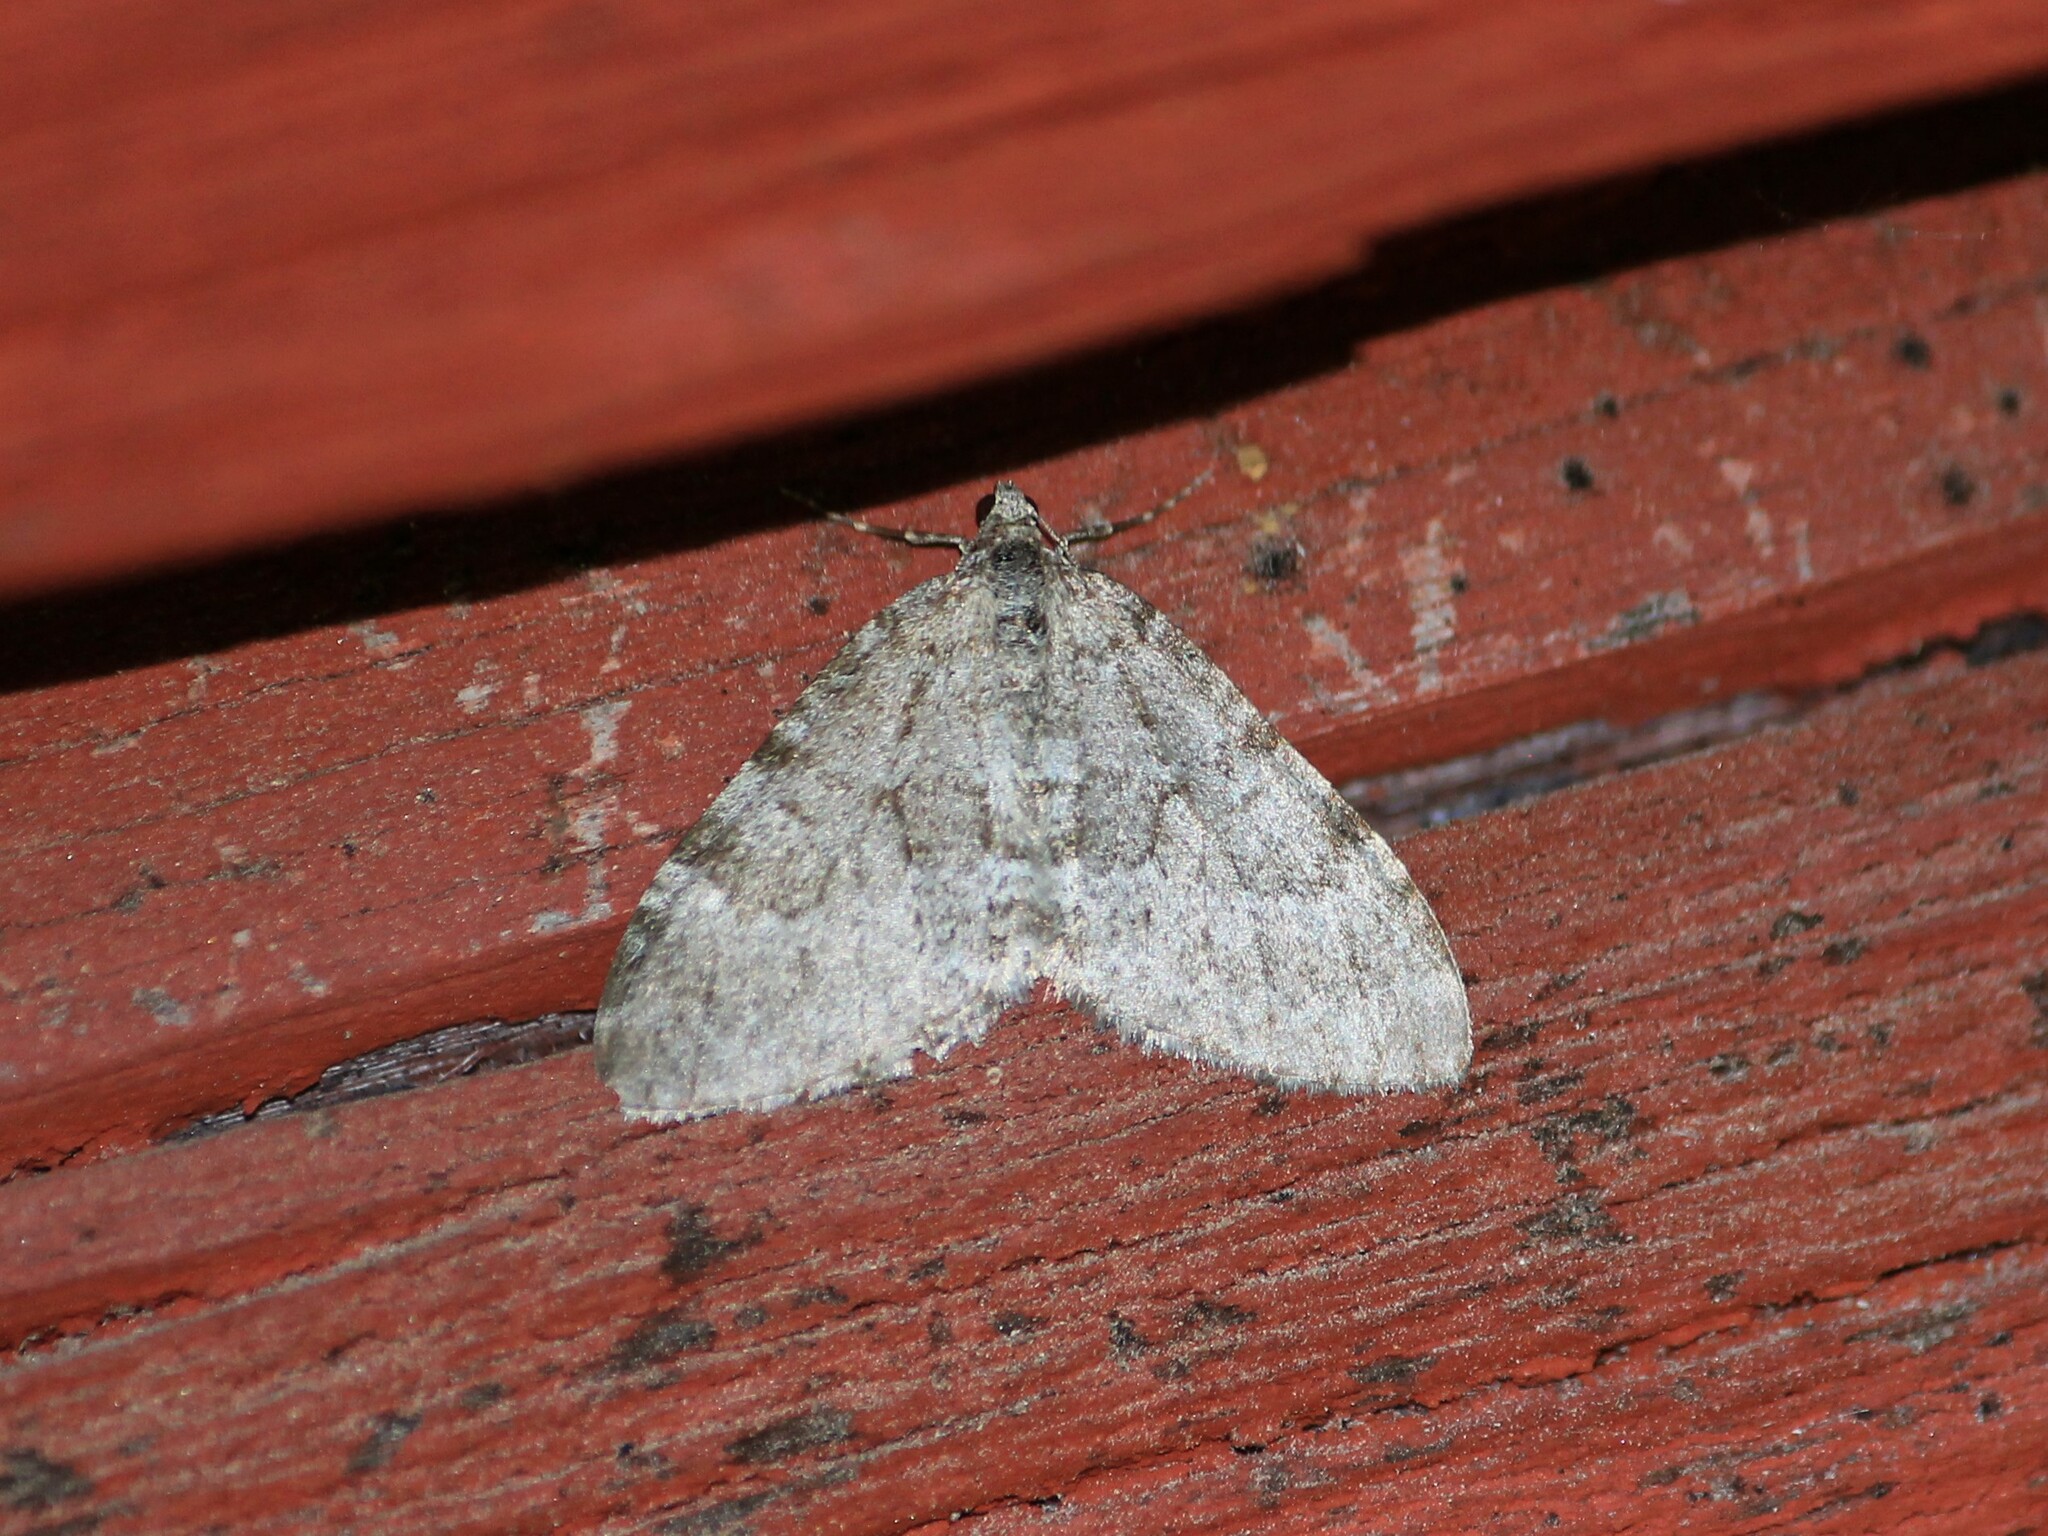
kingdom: Animalia
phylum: Arthropoda
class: Insecta
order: Lepidoptera
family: Geometridae
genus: Entephria
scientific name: Entephria caesiata
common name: Grey mountain moth
